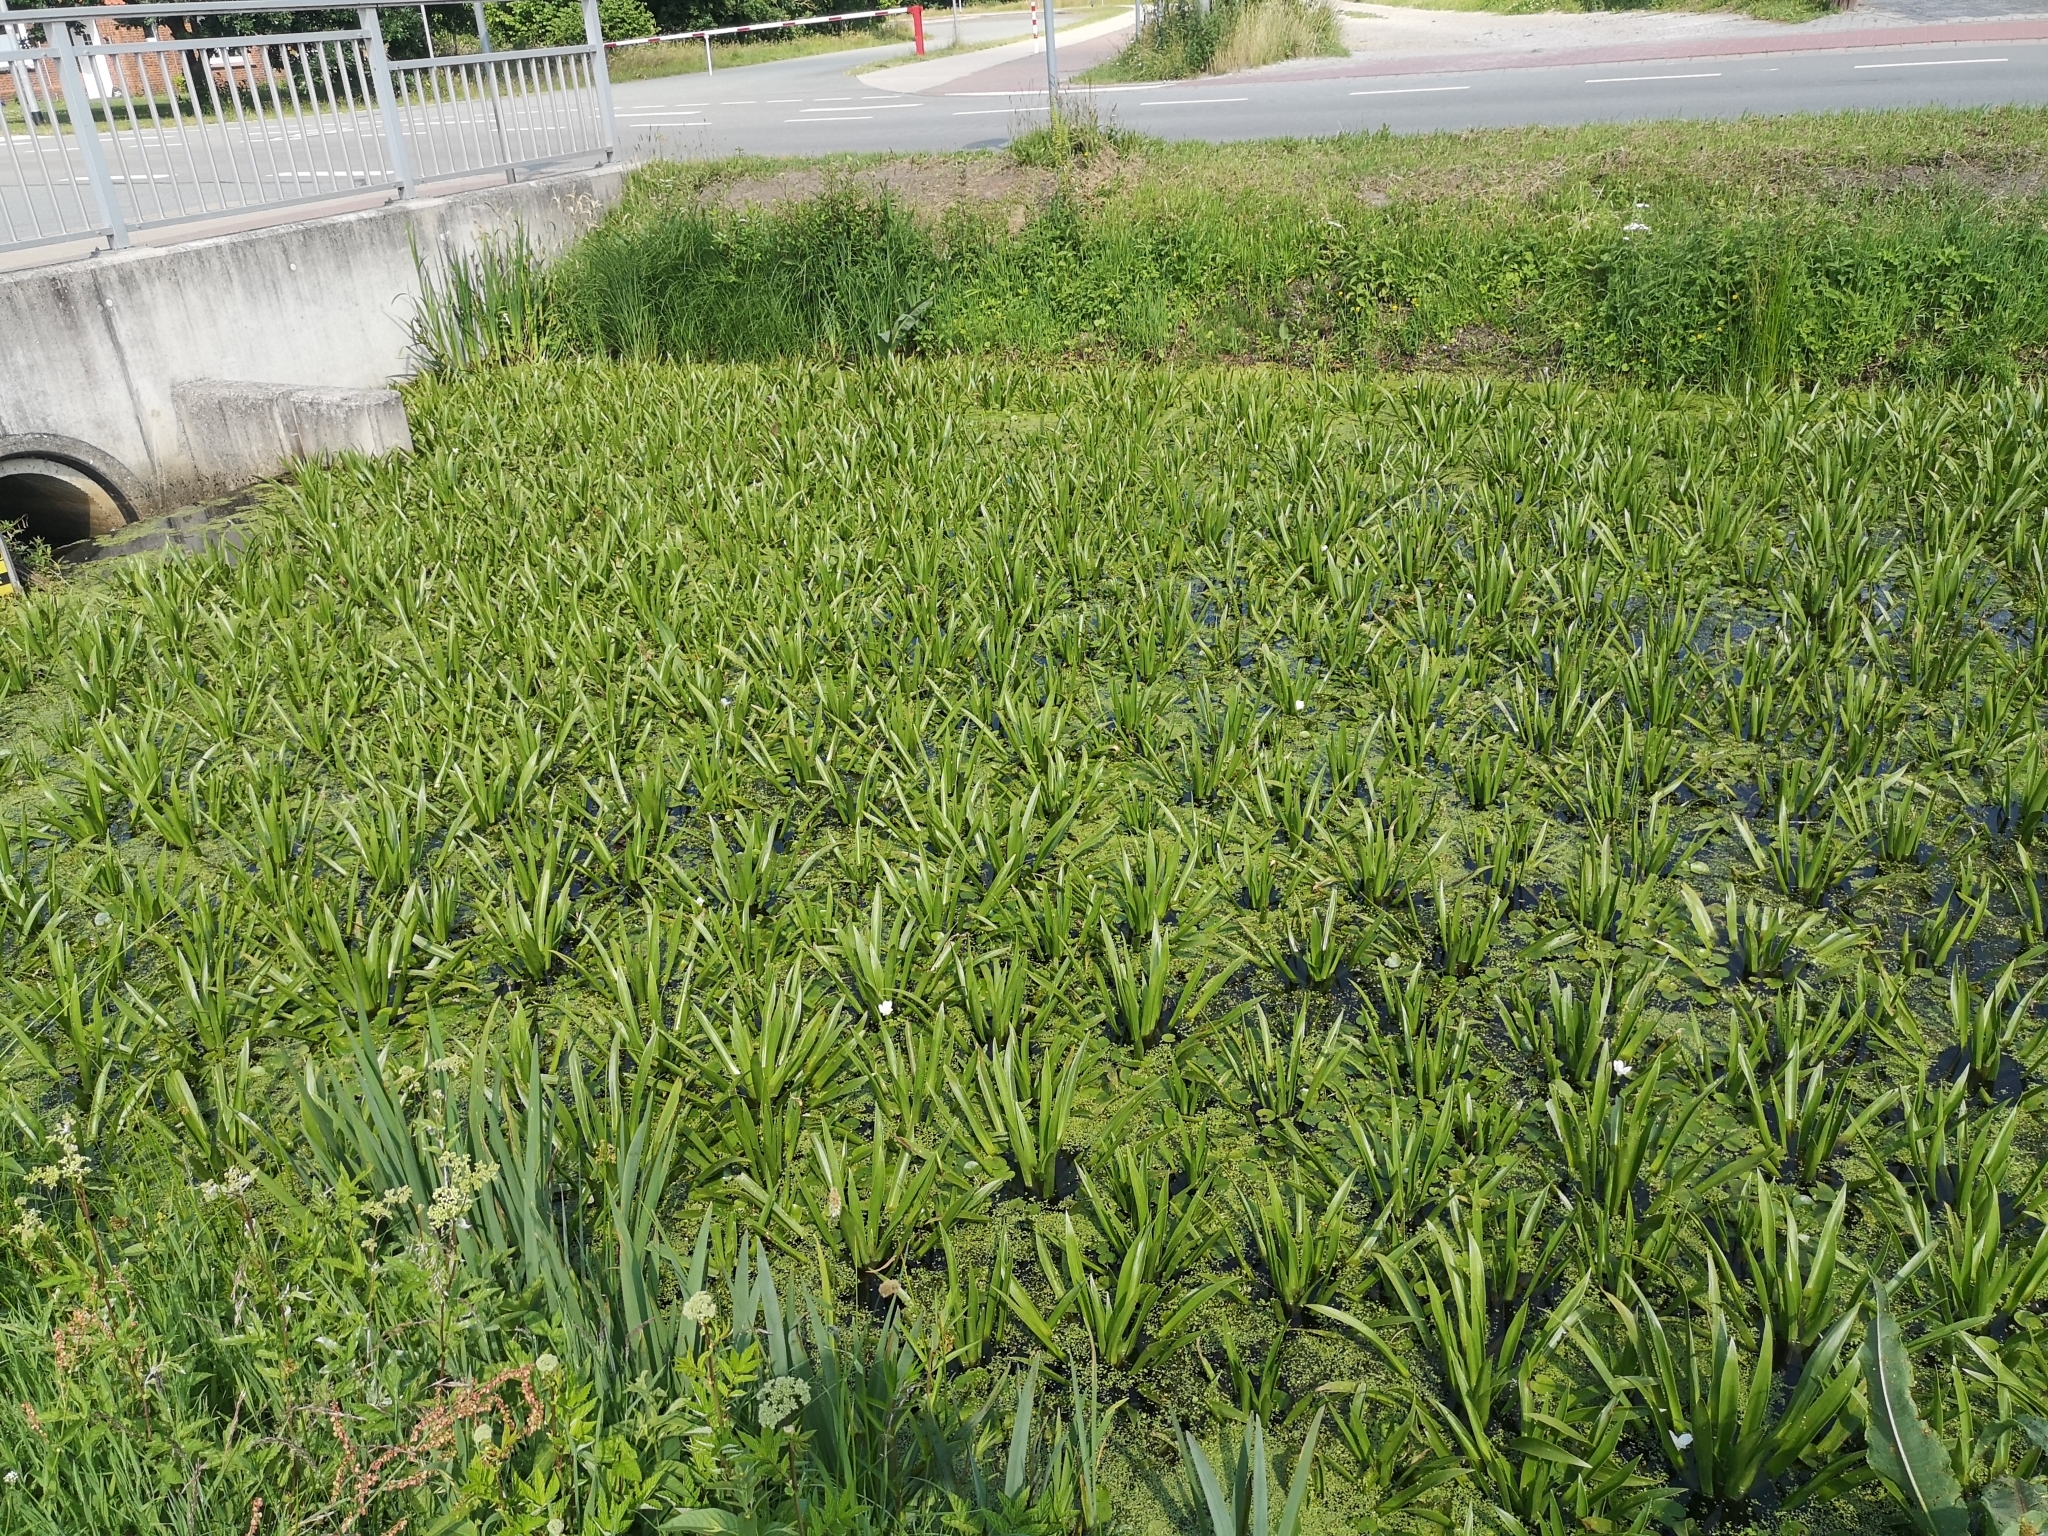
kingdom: Plantae
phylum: Tracheophyta
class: Liliopsida
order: Alismatales
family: Hydrocharitaceae
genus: Stratiotes
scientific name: Stratiotes aloides
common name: Water-soldier
